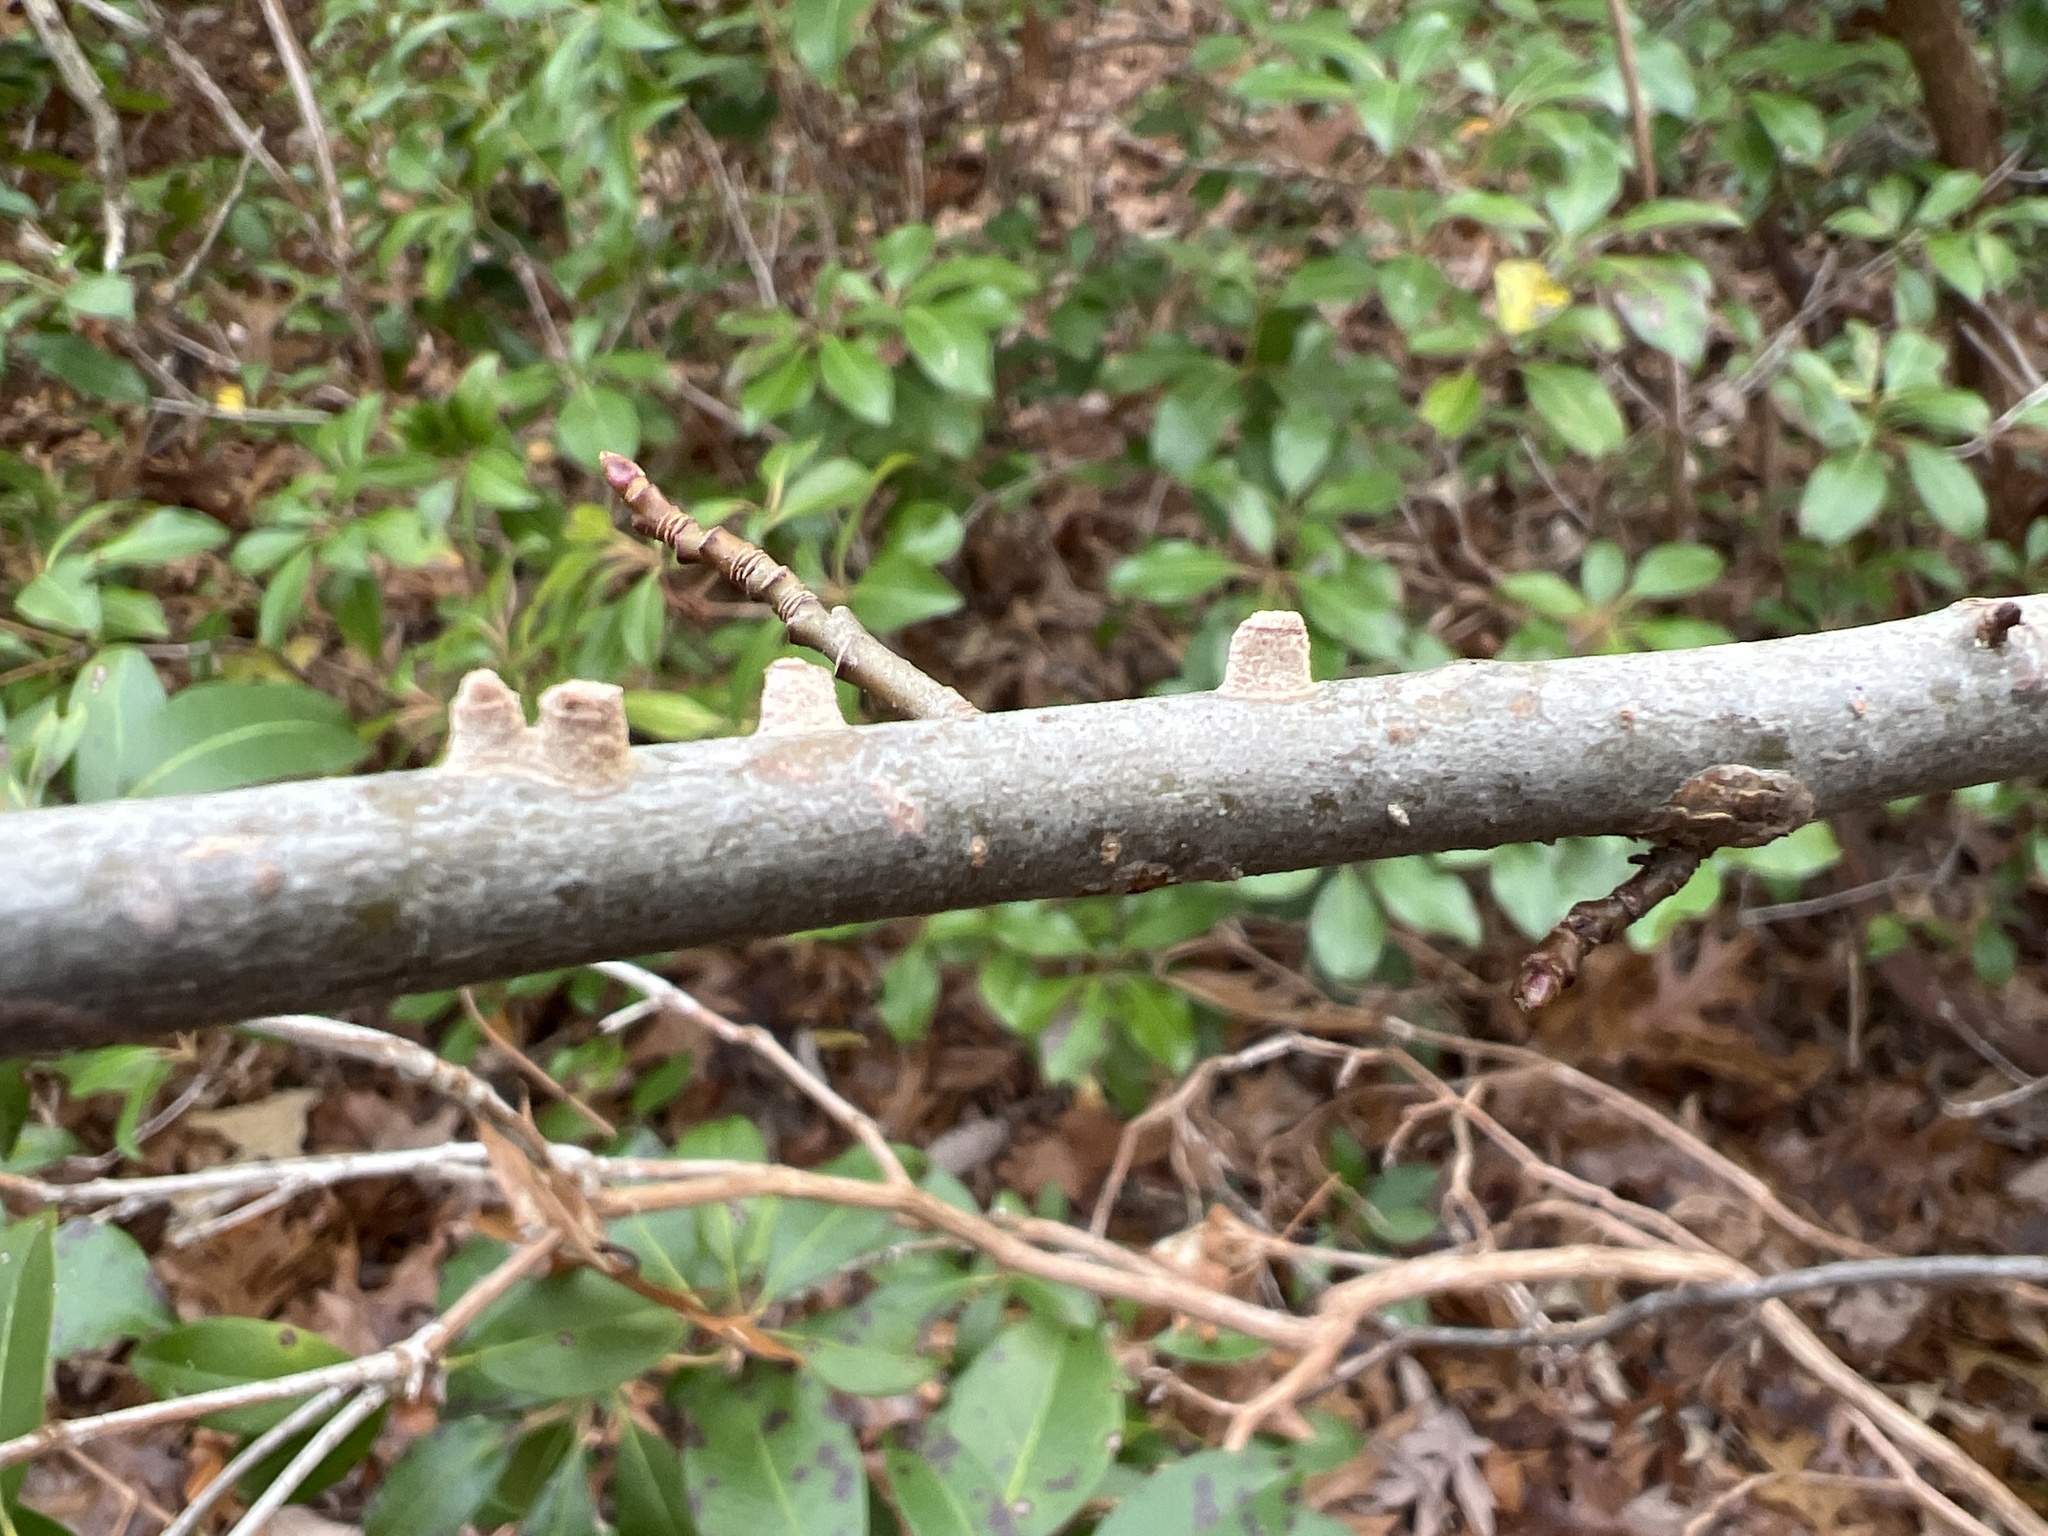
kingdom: Plantae
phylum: Tracheophyta
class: Magnoliopsida
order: Saxifragales
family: Altingiaceae
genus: Liquidambar
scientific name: Liquidambar styraciflua
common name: Sweet gum
